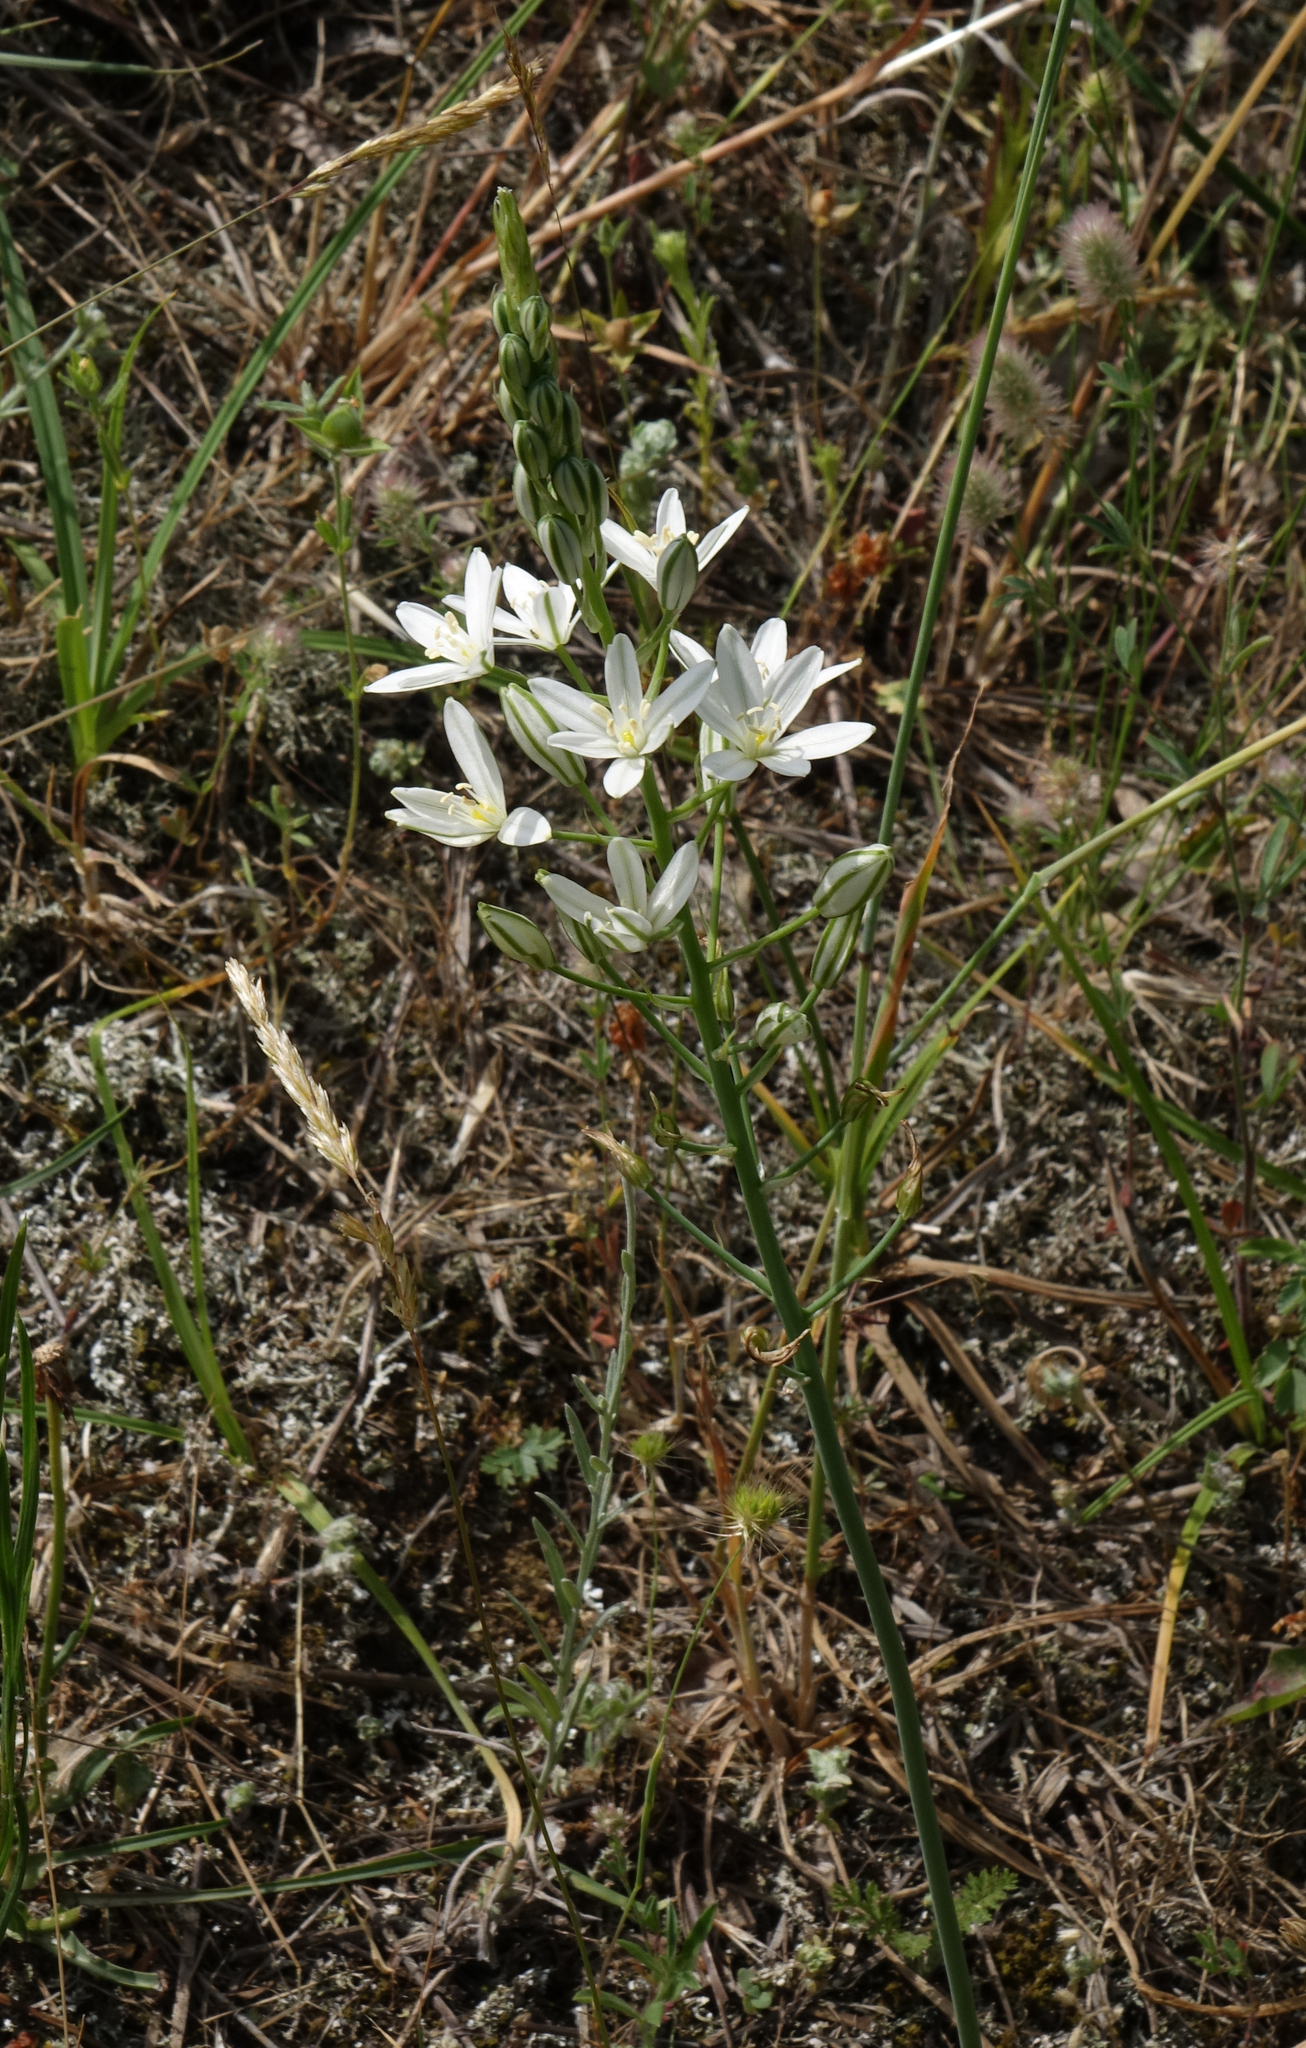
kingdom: Plantae
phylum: Tracheophyta
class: Liliopsida
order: Asparagales
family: Asparagaceae
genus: Ornithogalum
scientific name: Ornithogalum ponticum
